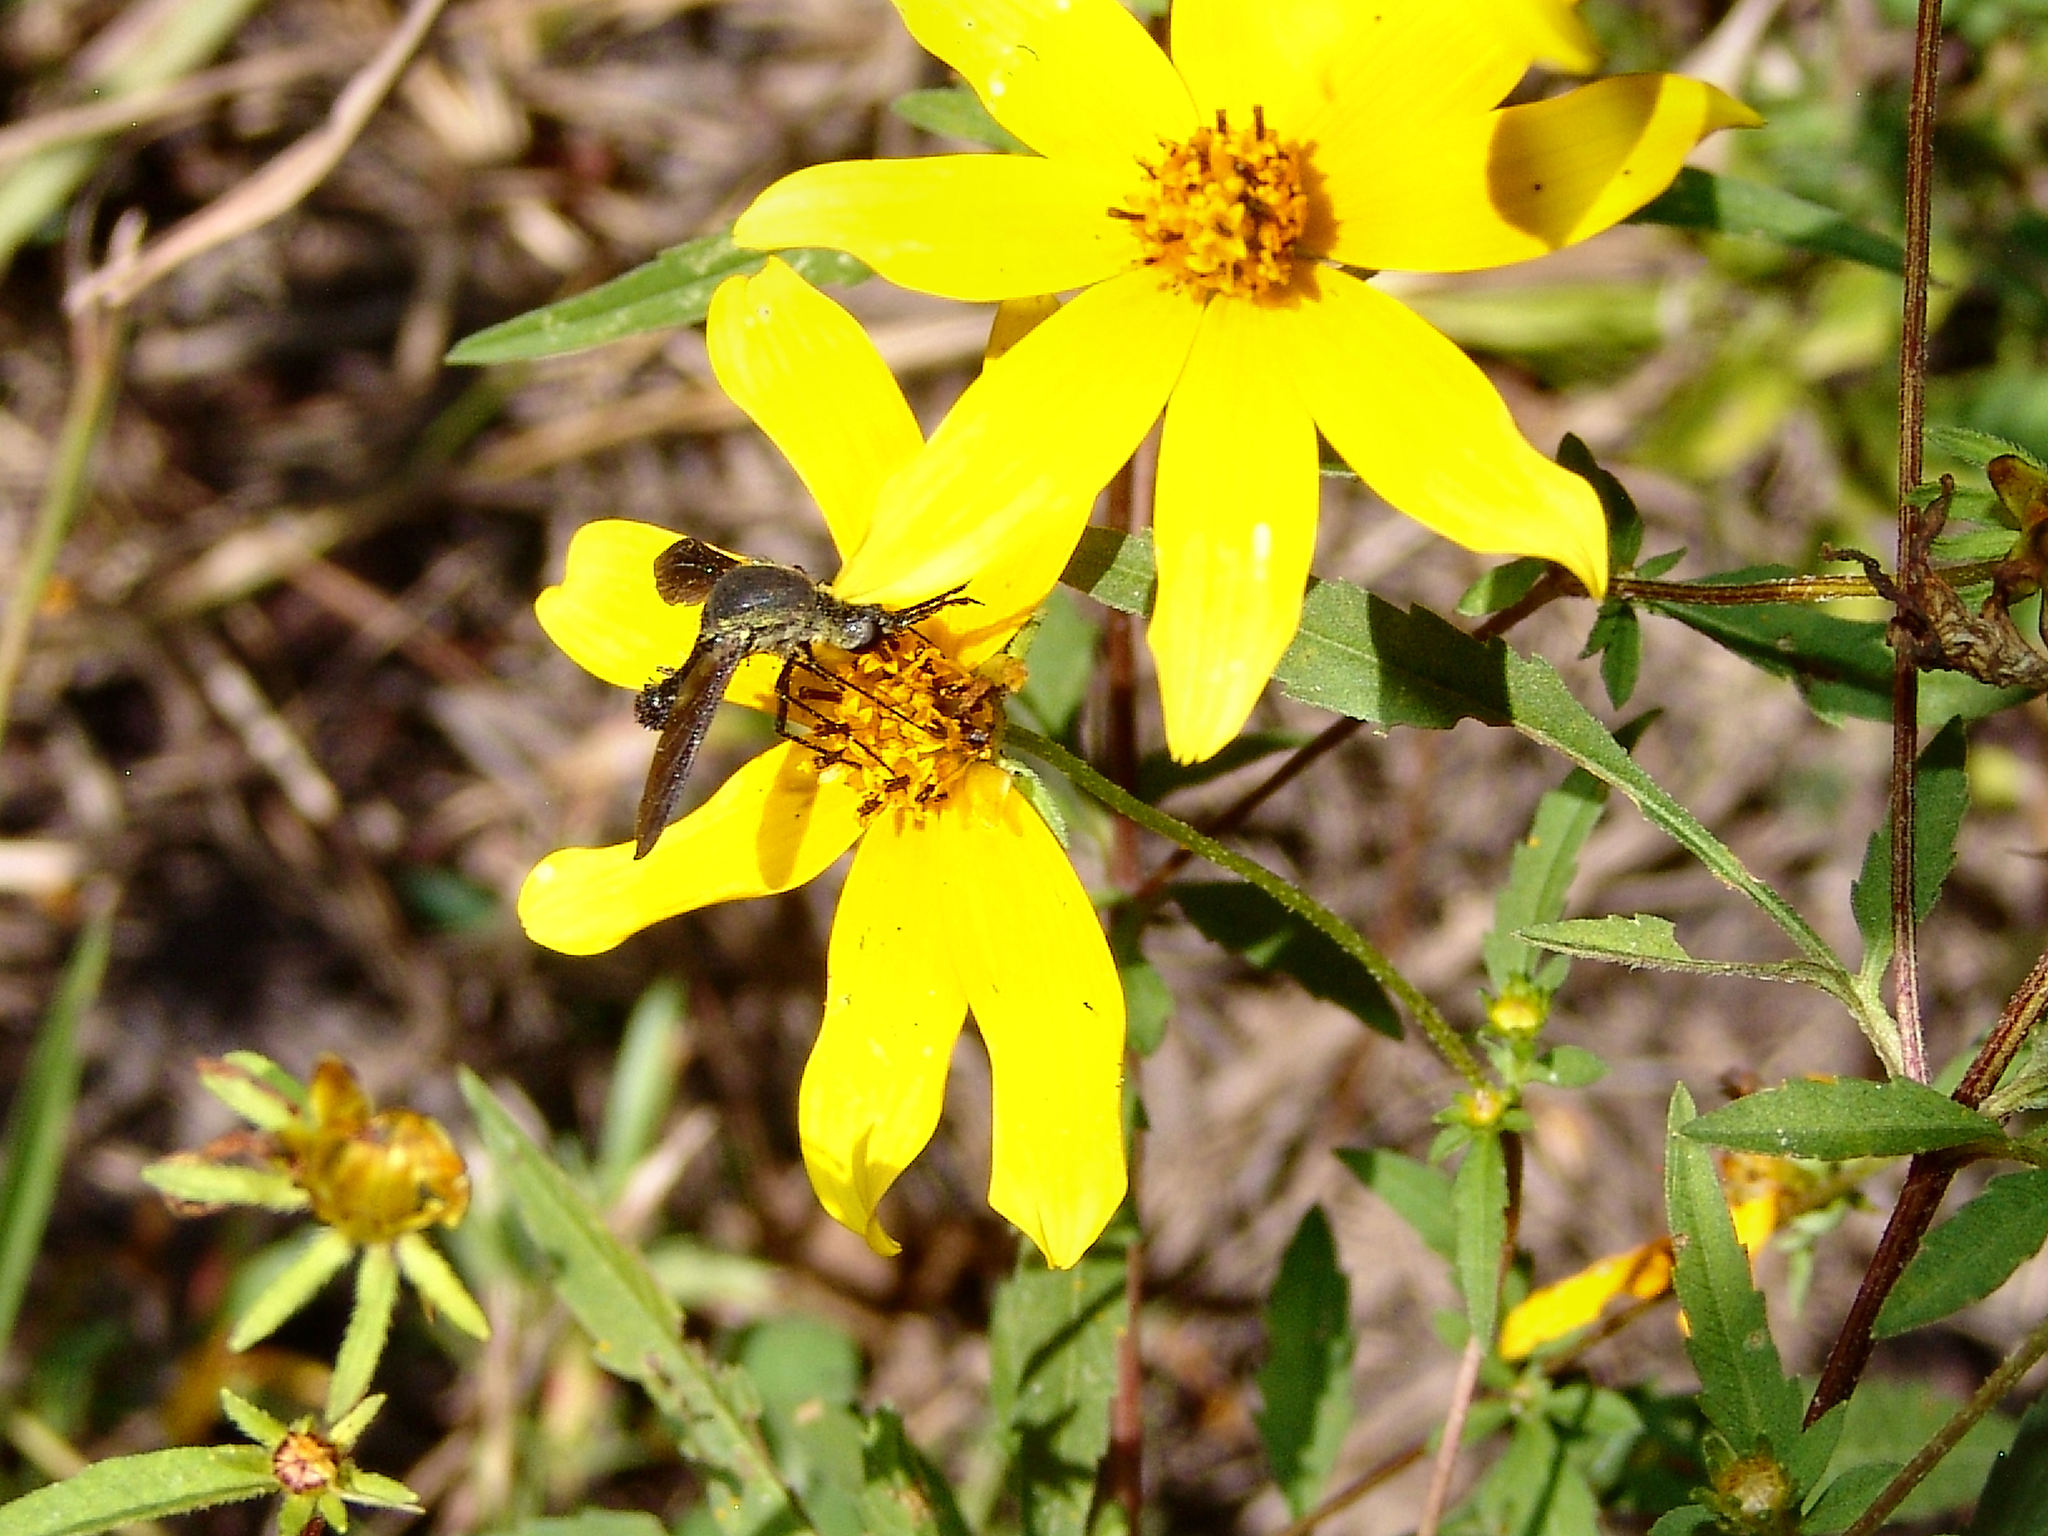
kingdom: Animalia
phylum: Arthropoda
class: Insecta
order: Diptera
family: Bombyliidae
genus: Lepidophora
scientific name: Lepidophora lepidocera
